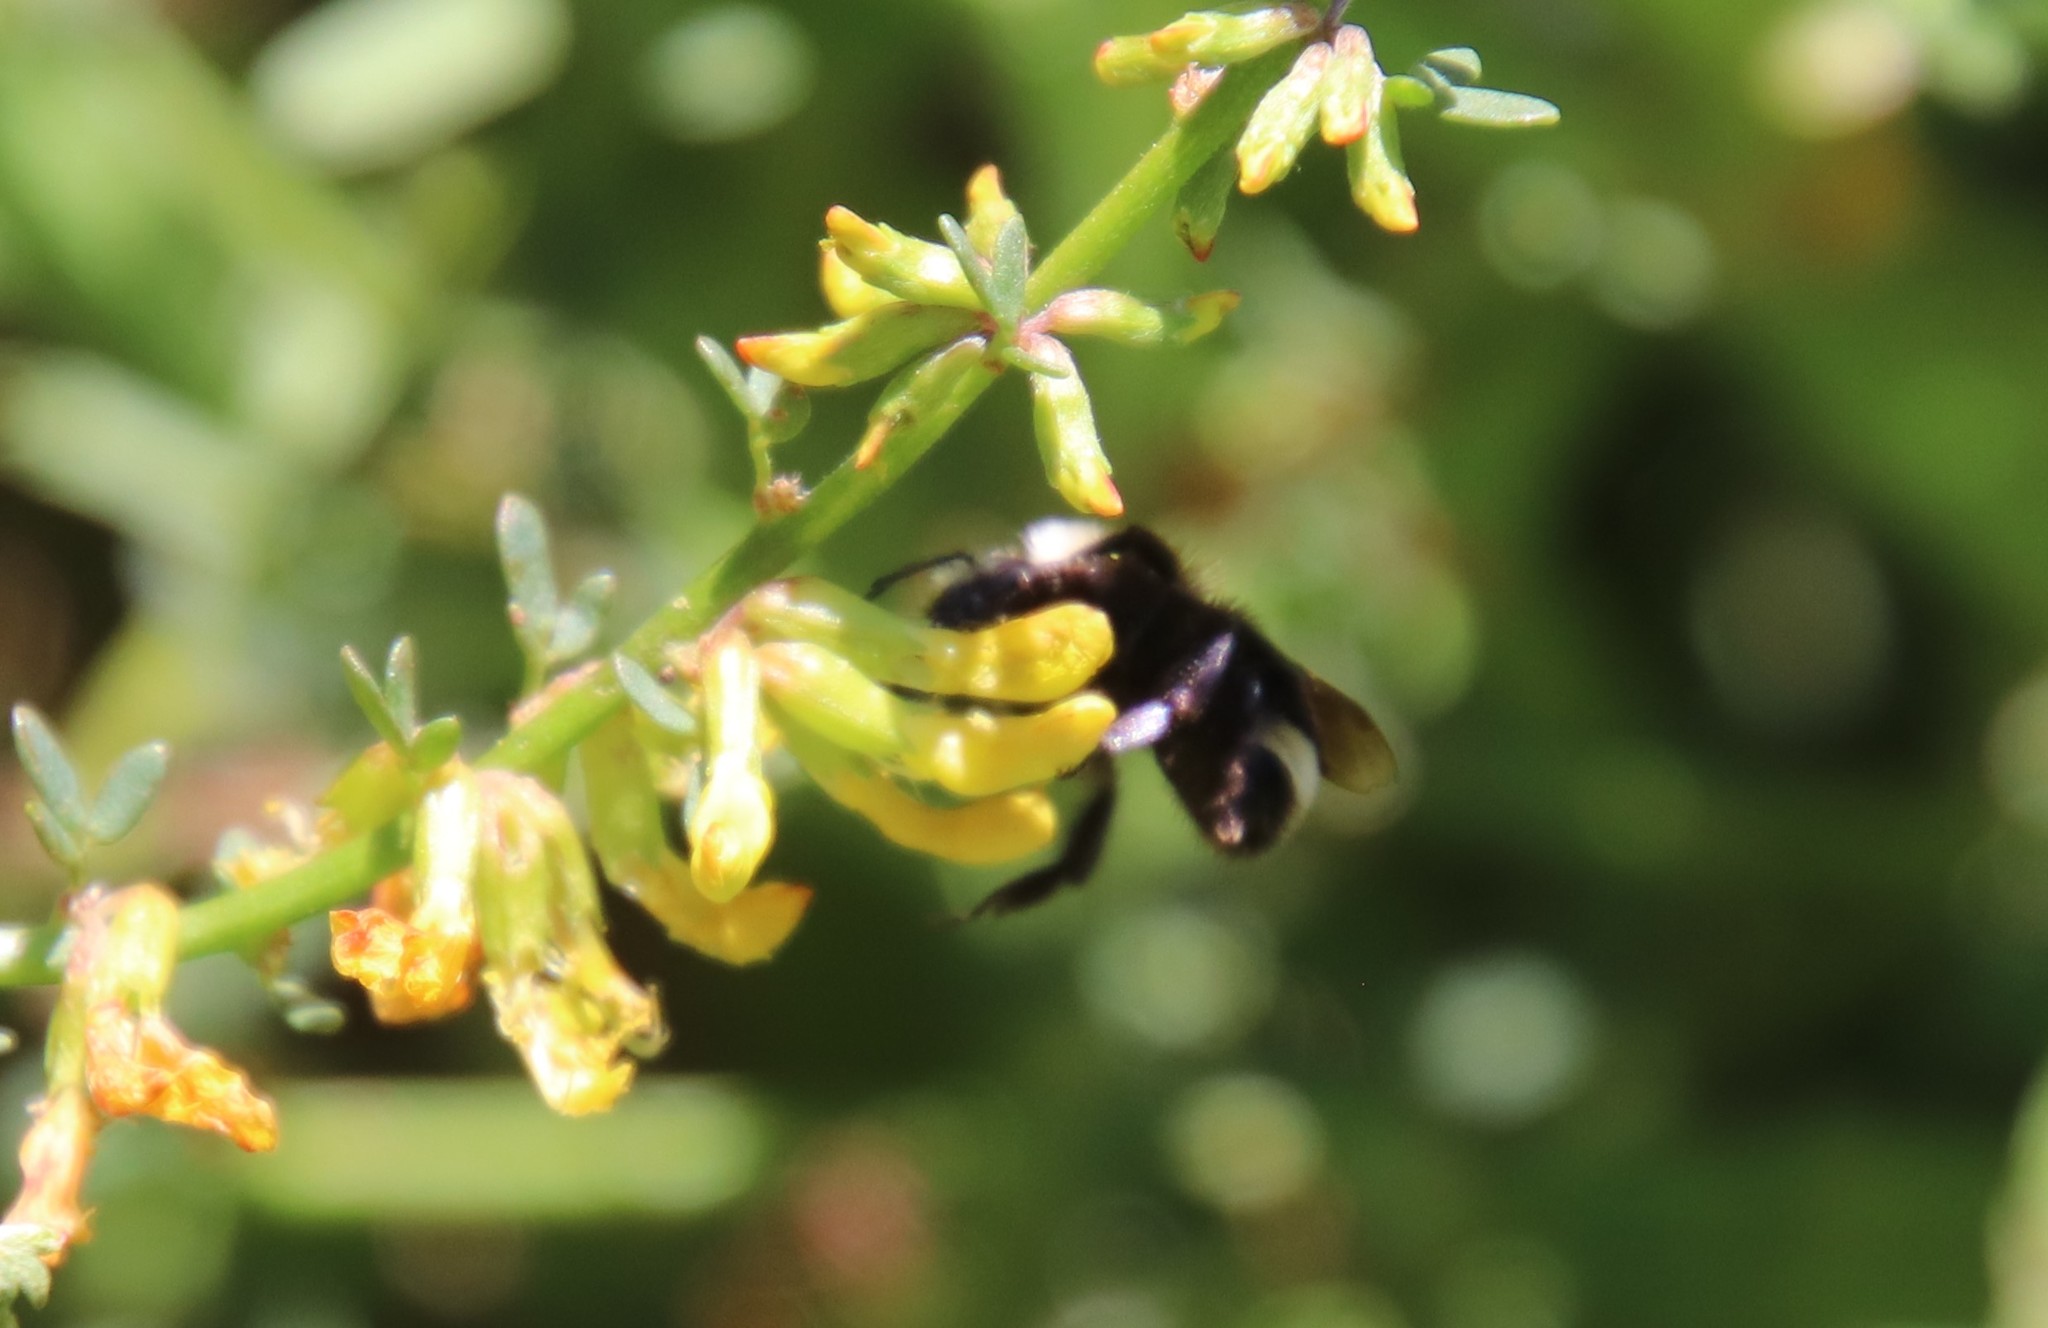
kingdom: Animalia
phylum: Arthropoda
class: Insecta
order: Hymenoptera
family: Apidae
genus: Bombus
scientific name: Bombus vosnesenskii
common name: Vosnesensky bumble bee
